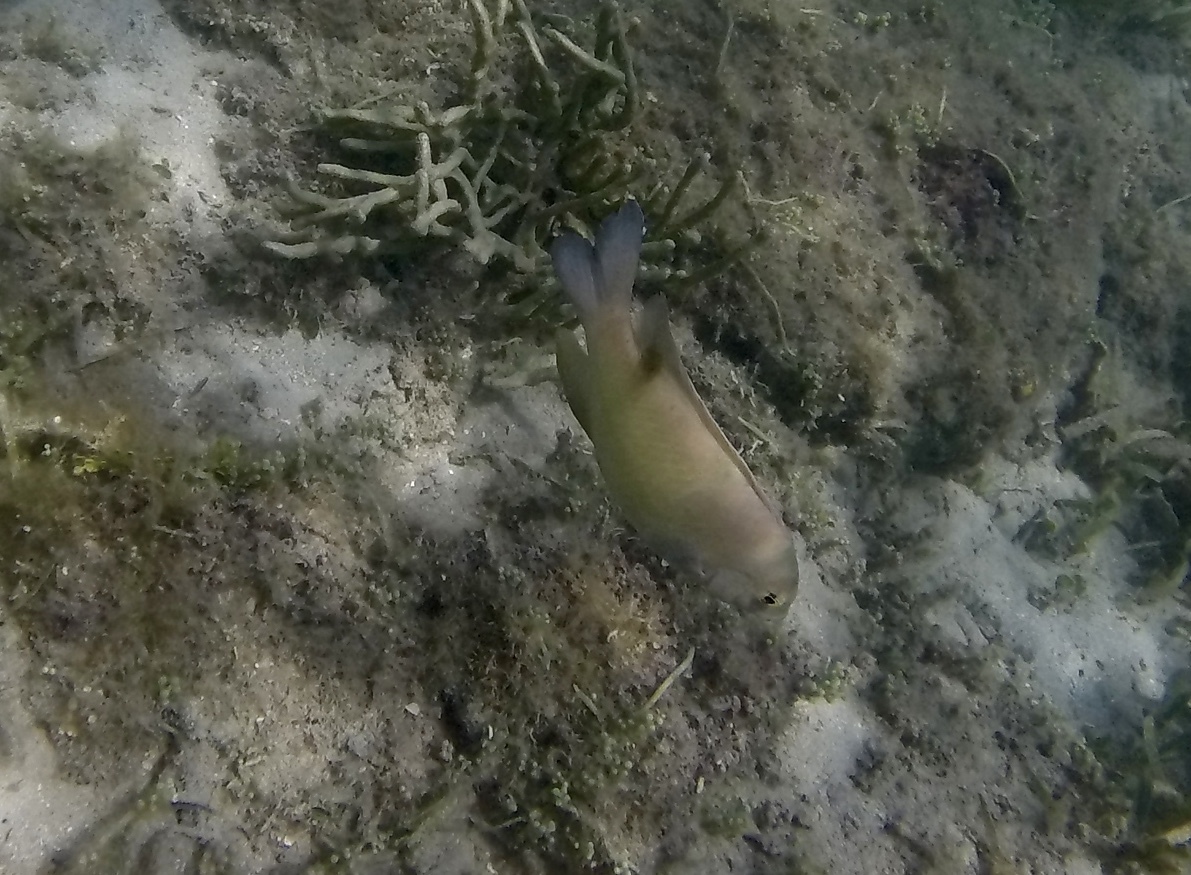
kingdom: Animalia
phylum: Chordata
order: Perciformes
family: Pomacentridae
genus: Dischistodus
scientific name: Dischistodus perspicillatus
